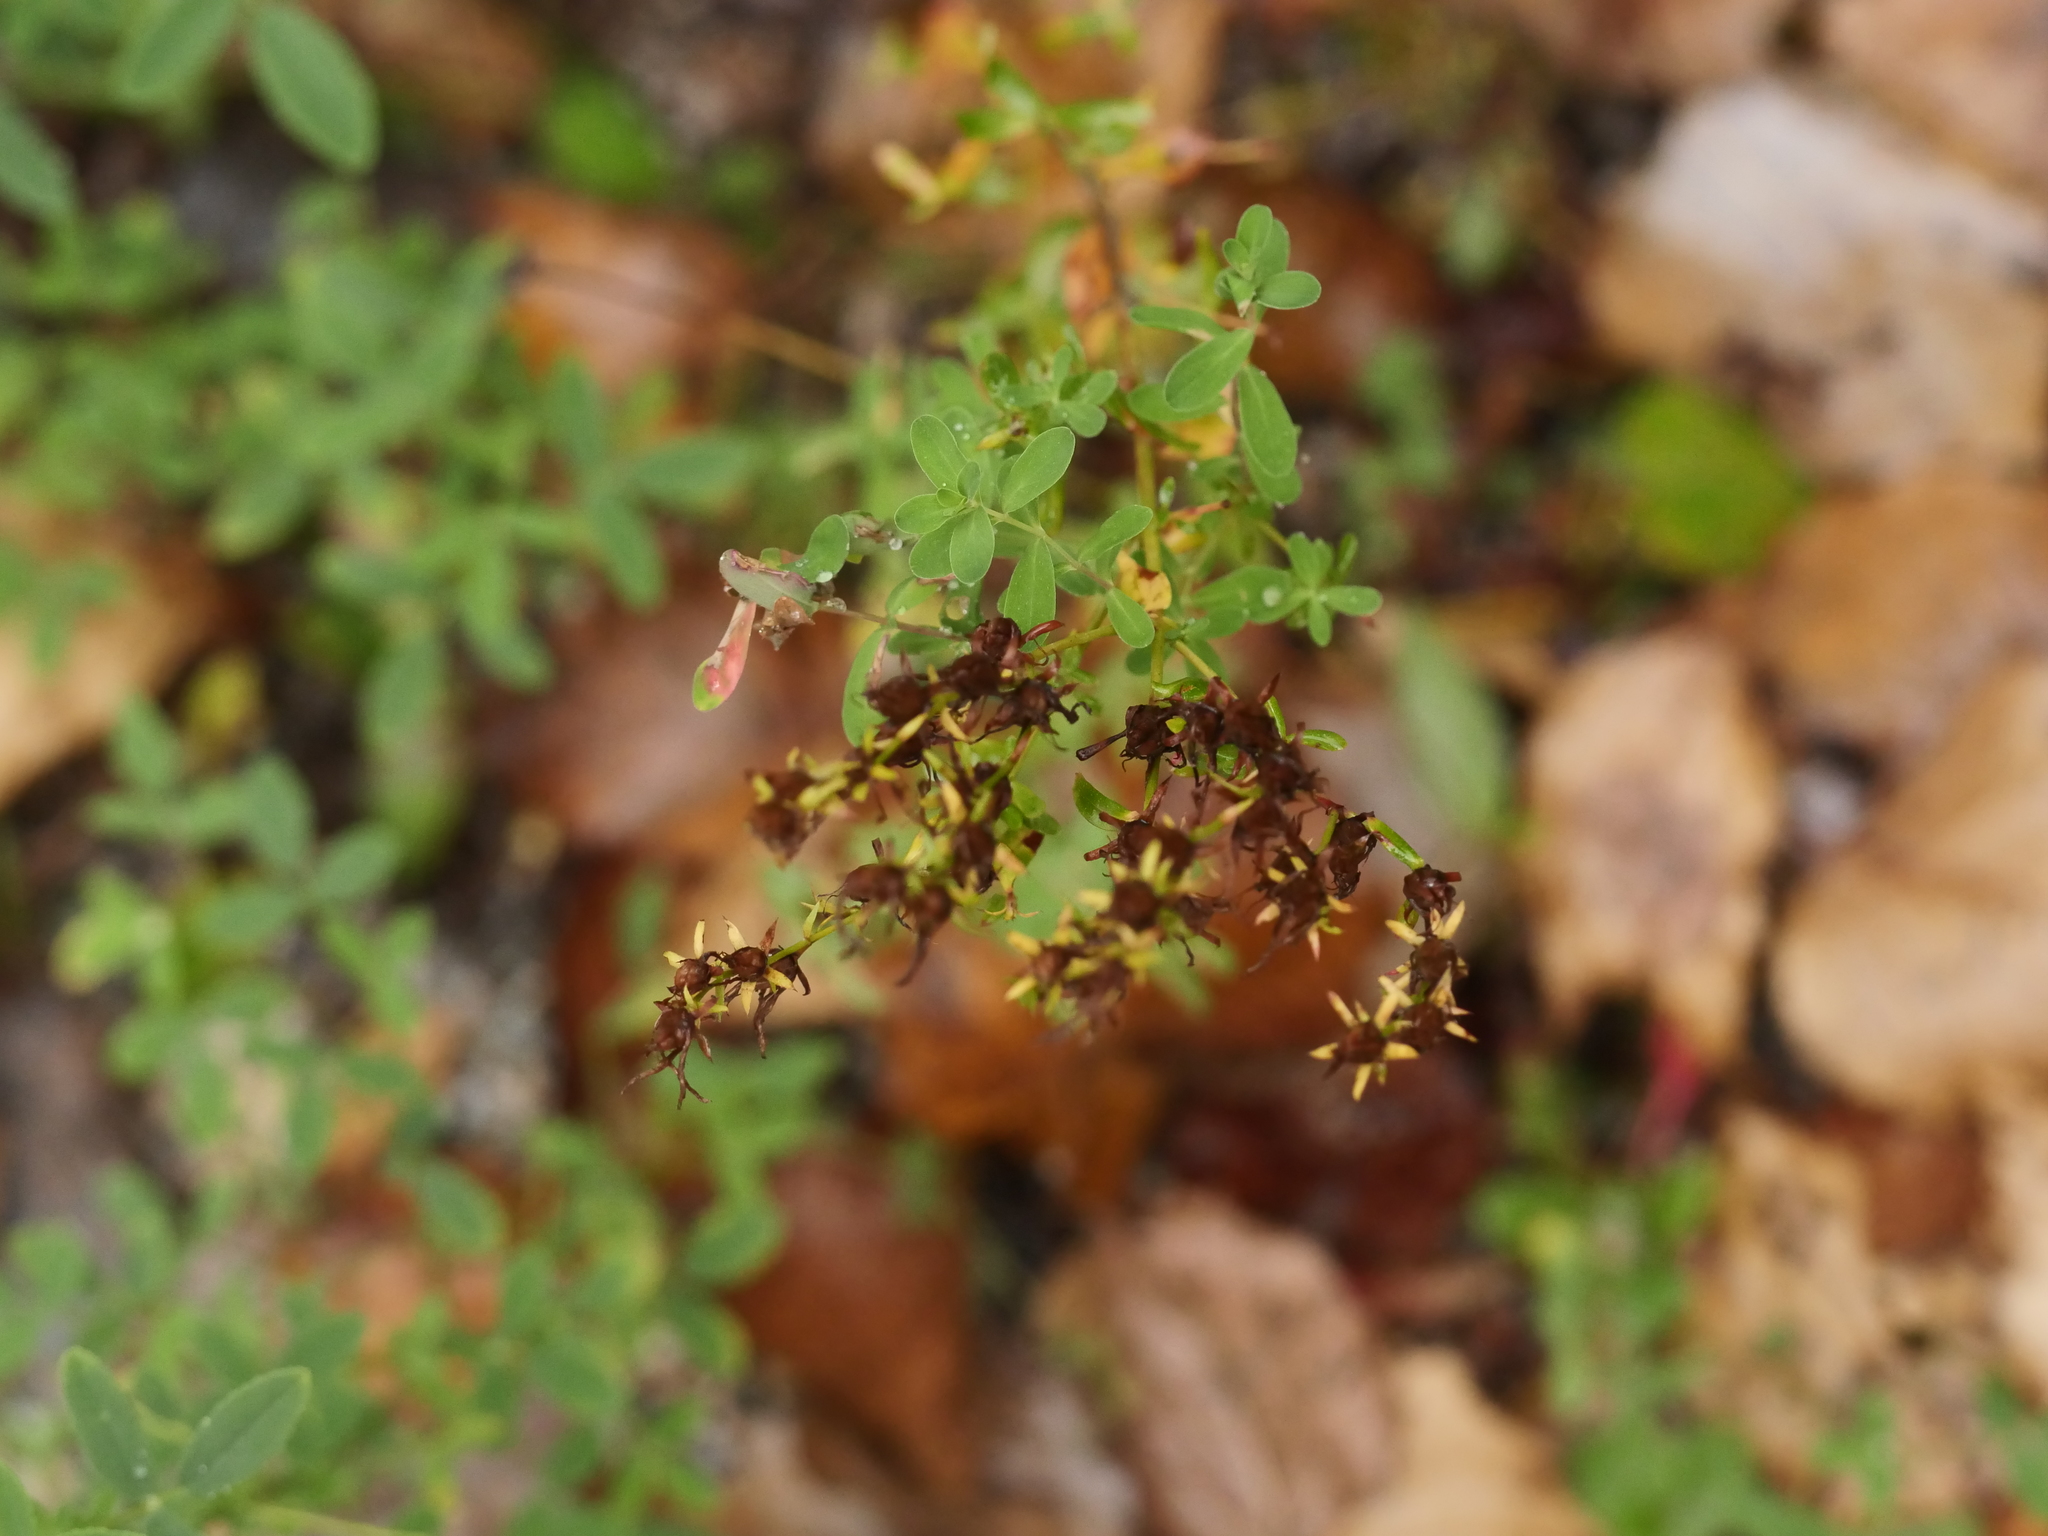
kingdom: Plantae
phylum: Tracheophyta
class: Magnoliopsida
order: Malpighiales
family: Hypericaceae
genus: Hypericum
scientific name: Hypericum perforatum
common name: Common st. johnswort
